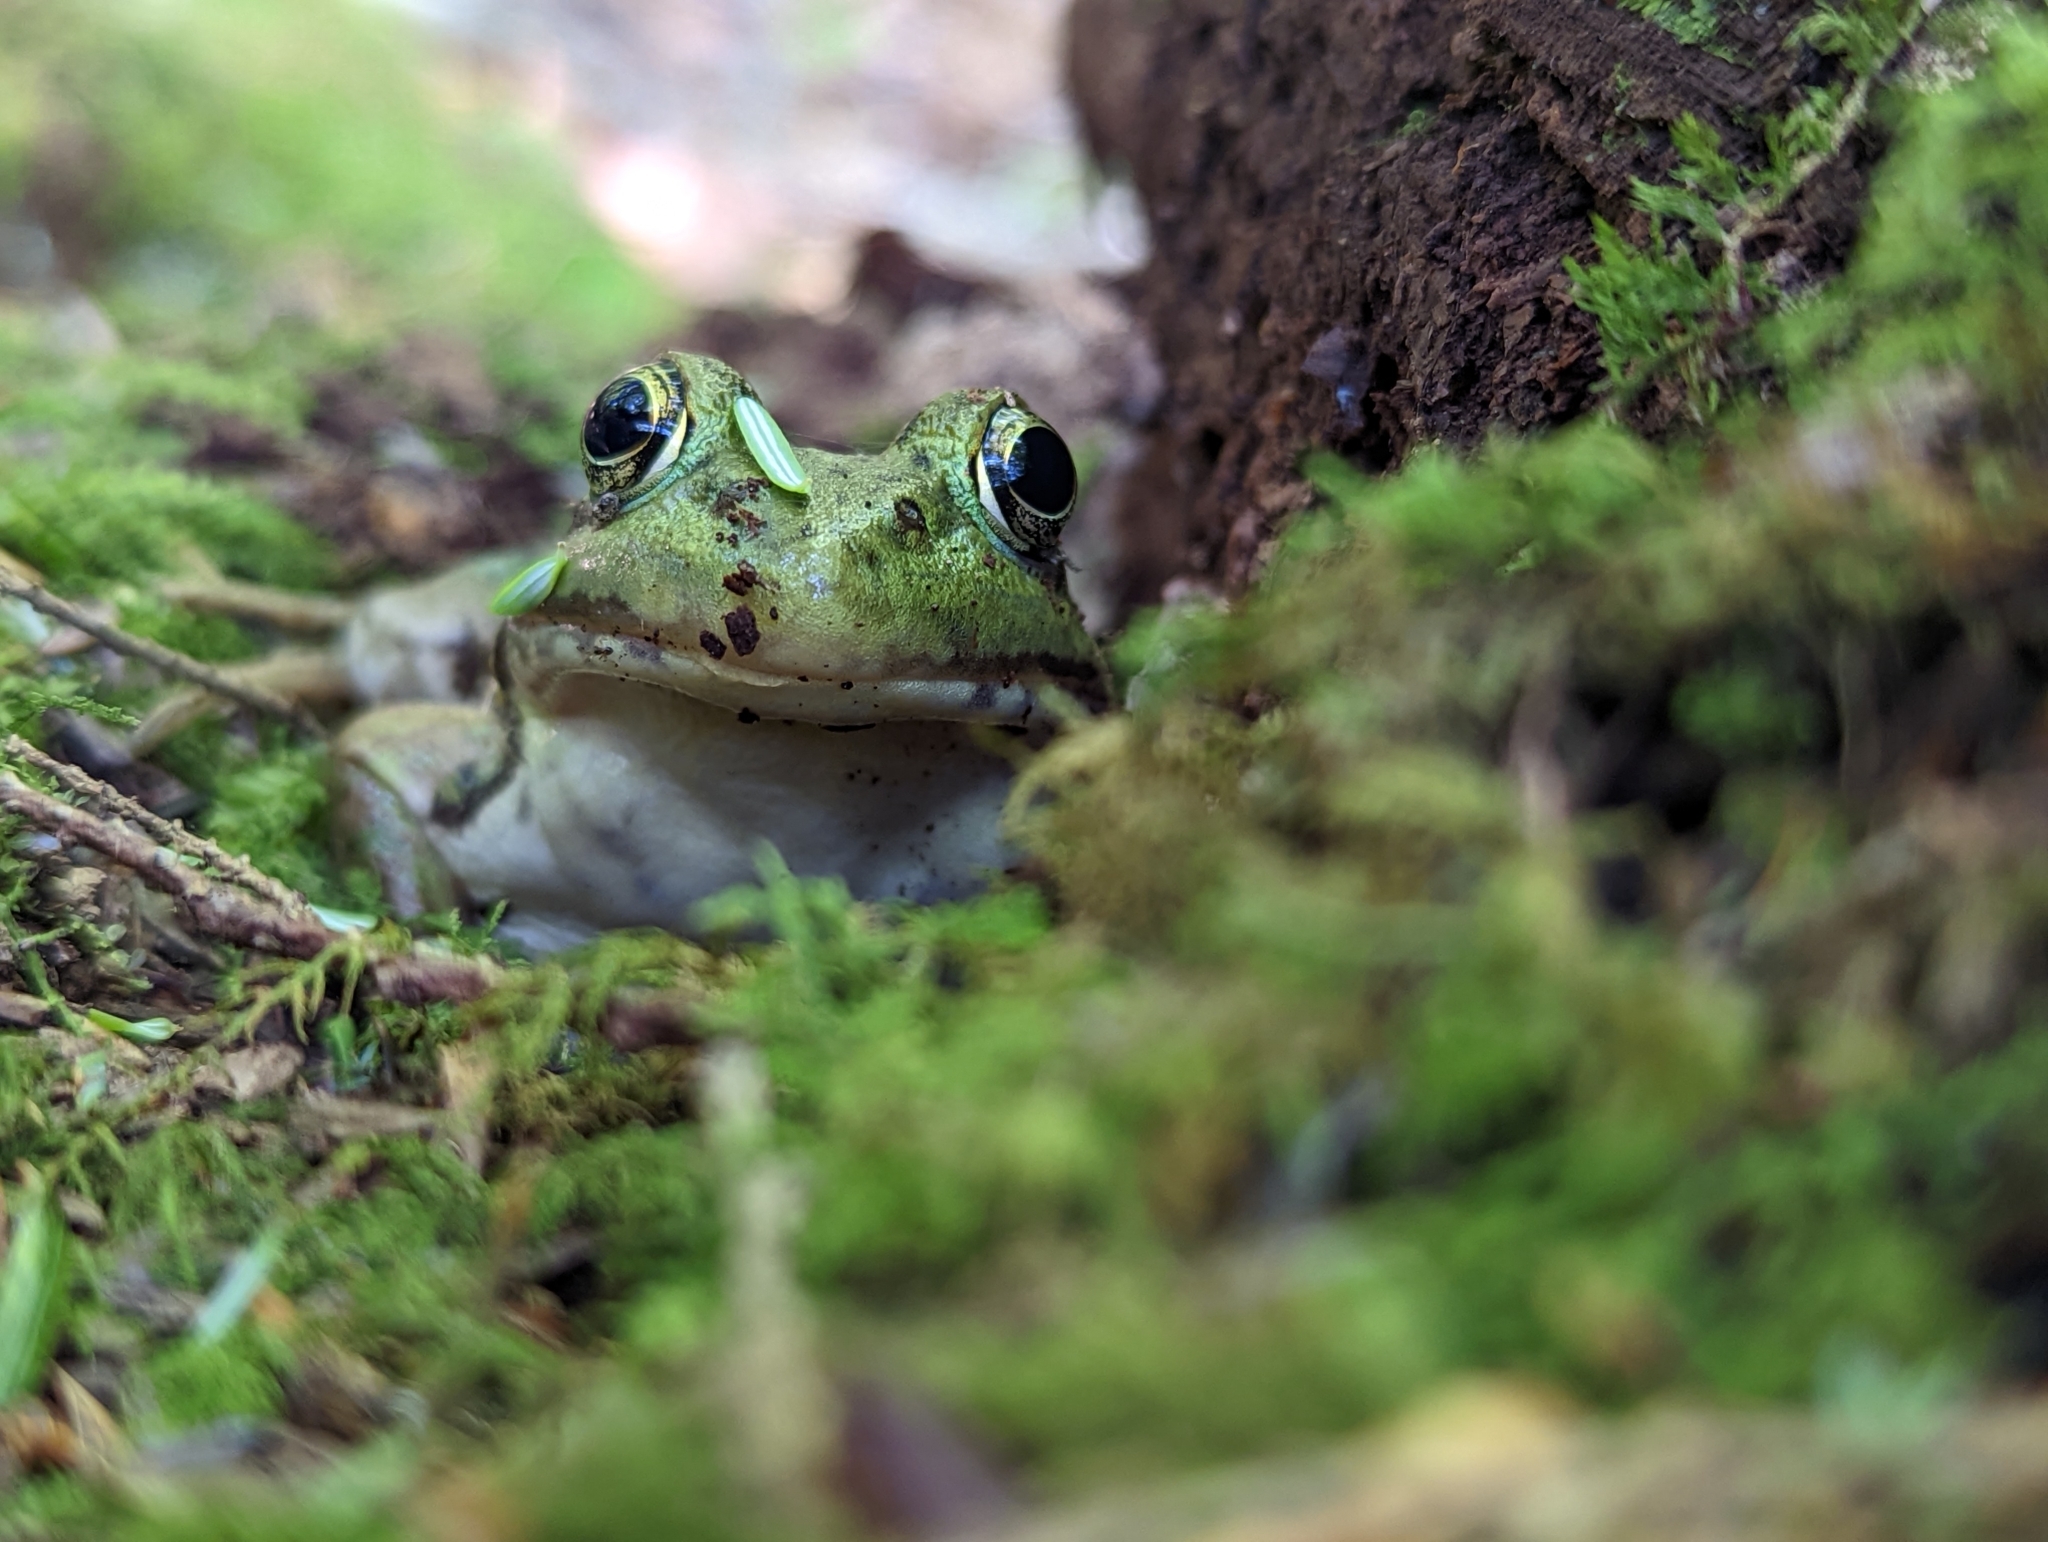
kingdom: Animalia
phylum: Chordata
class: Amphibia
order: Anura
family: Ranidae
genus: Lithobates
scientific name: Lithobates clamitans
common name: Green frog
